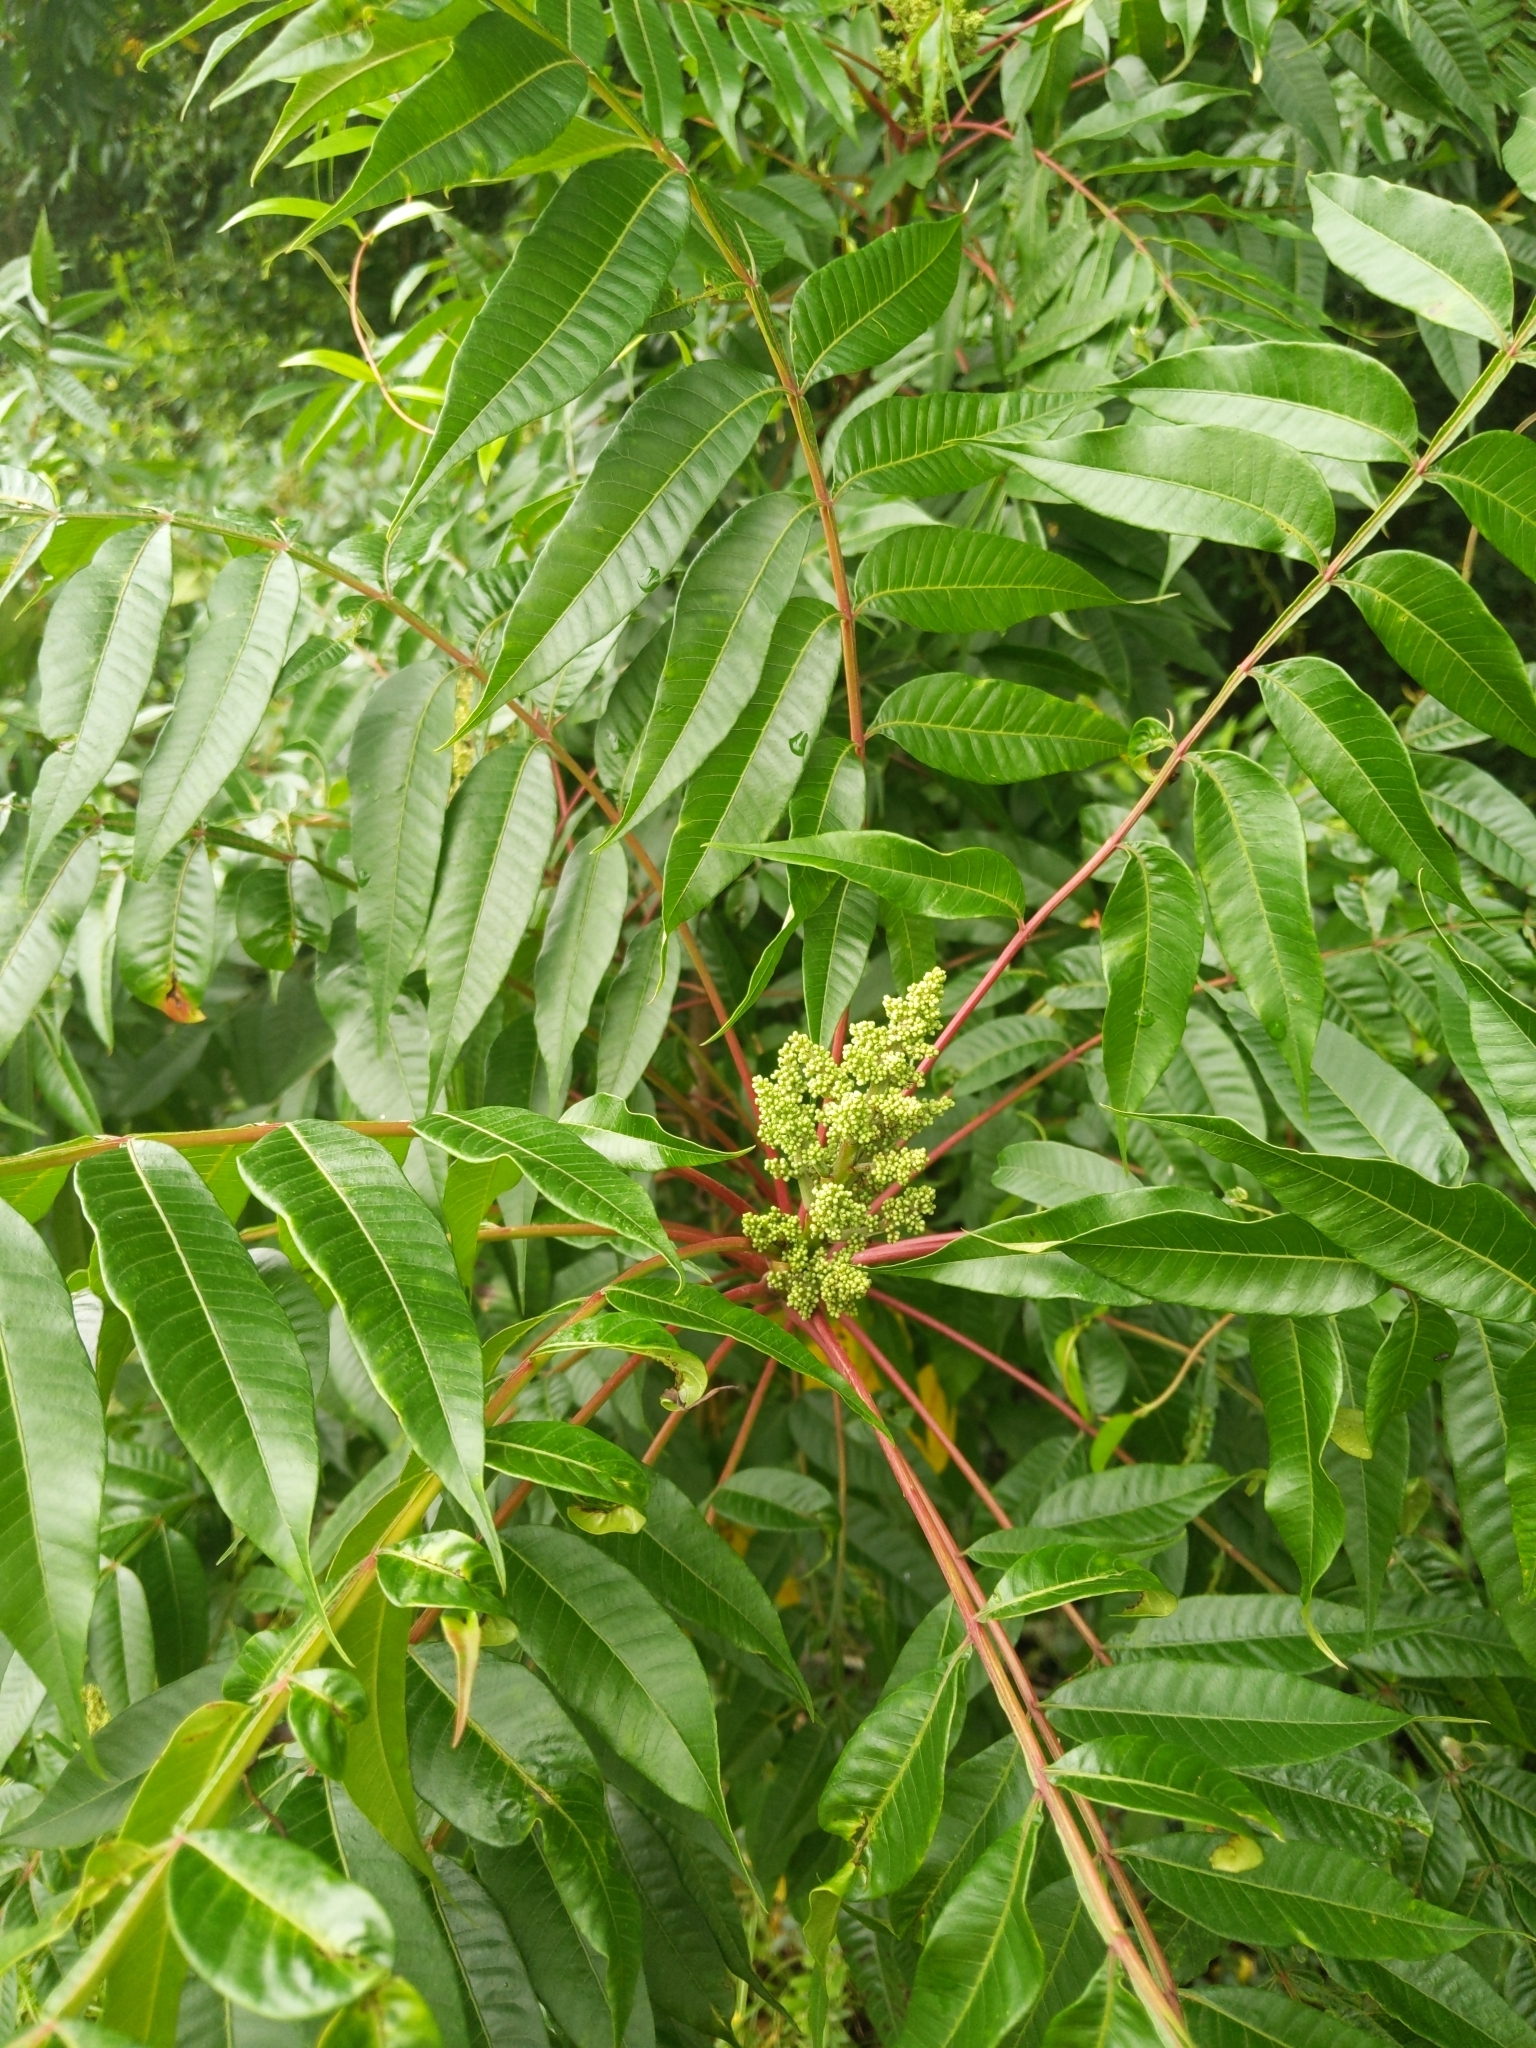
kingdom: Plantae
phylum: Tracheophyta
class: Magnoliopsida
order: Sapindales
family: Anacardiaceae
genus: Rhus
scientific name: Rhus copallina
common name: Shining sumac
